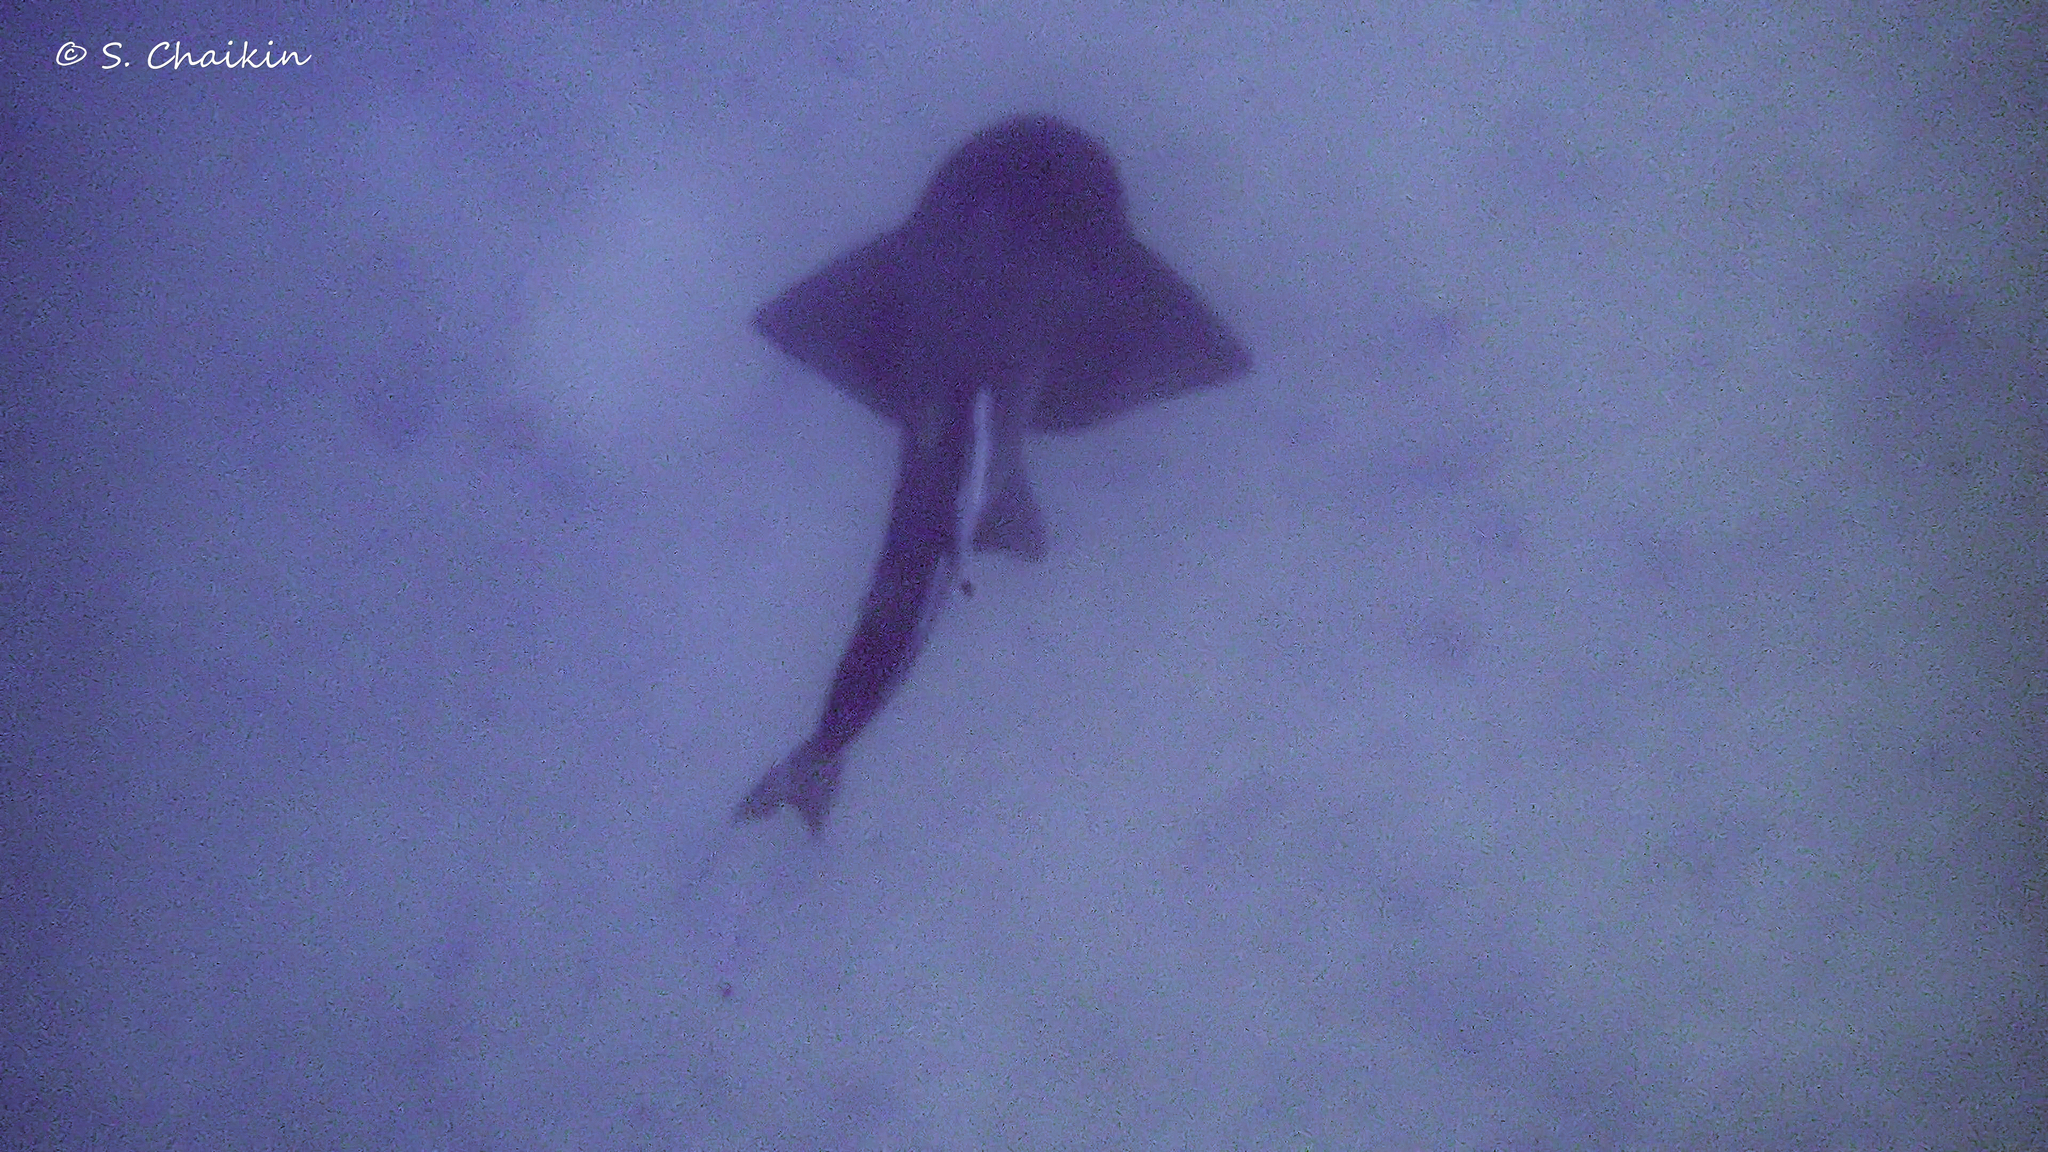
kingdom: Animalia
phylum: Chordata
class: Elasmobranchii
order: Rhinopristiformes
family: Rhinidae
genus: Rhina
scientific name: Rhina ancylostoma
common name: Bowmouth guitarfish
